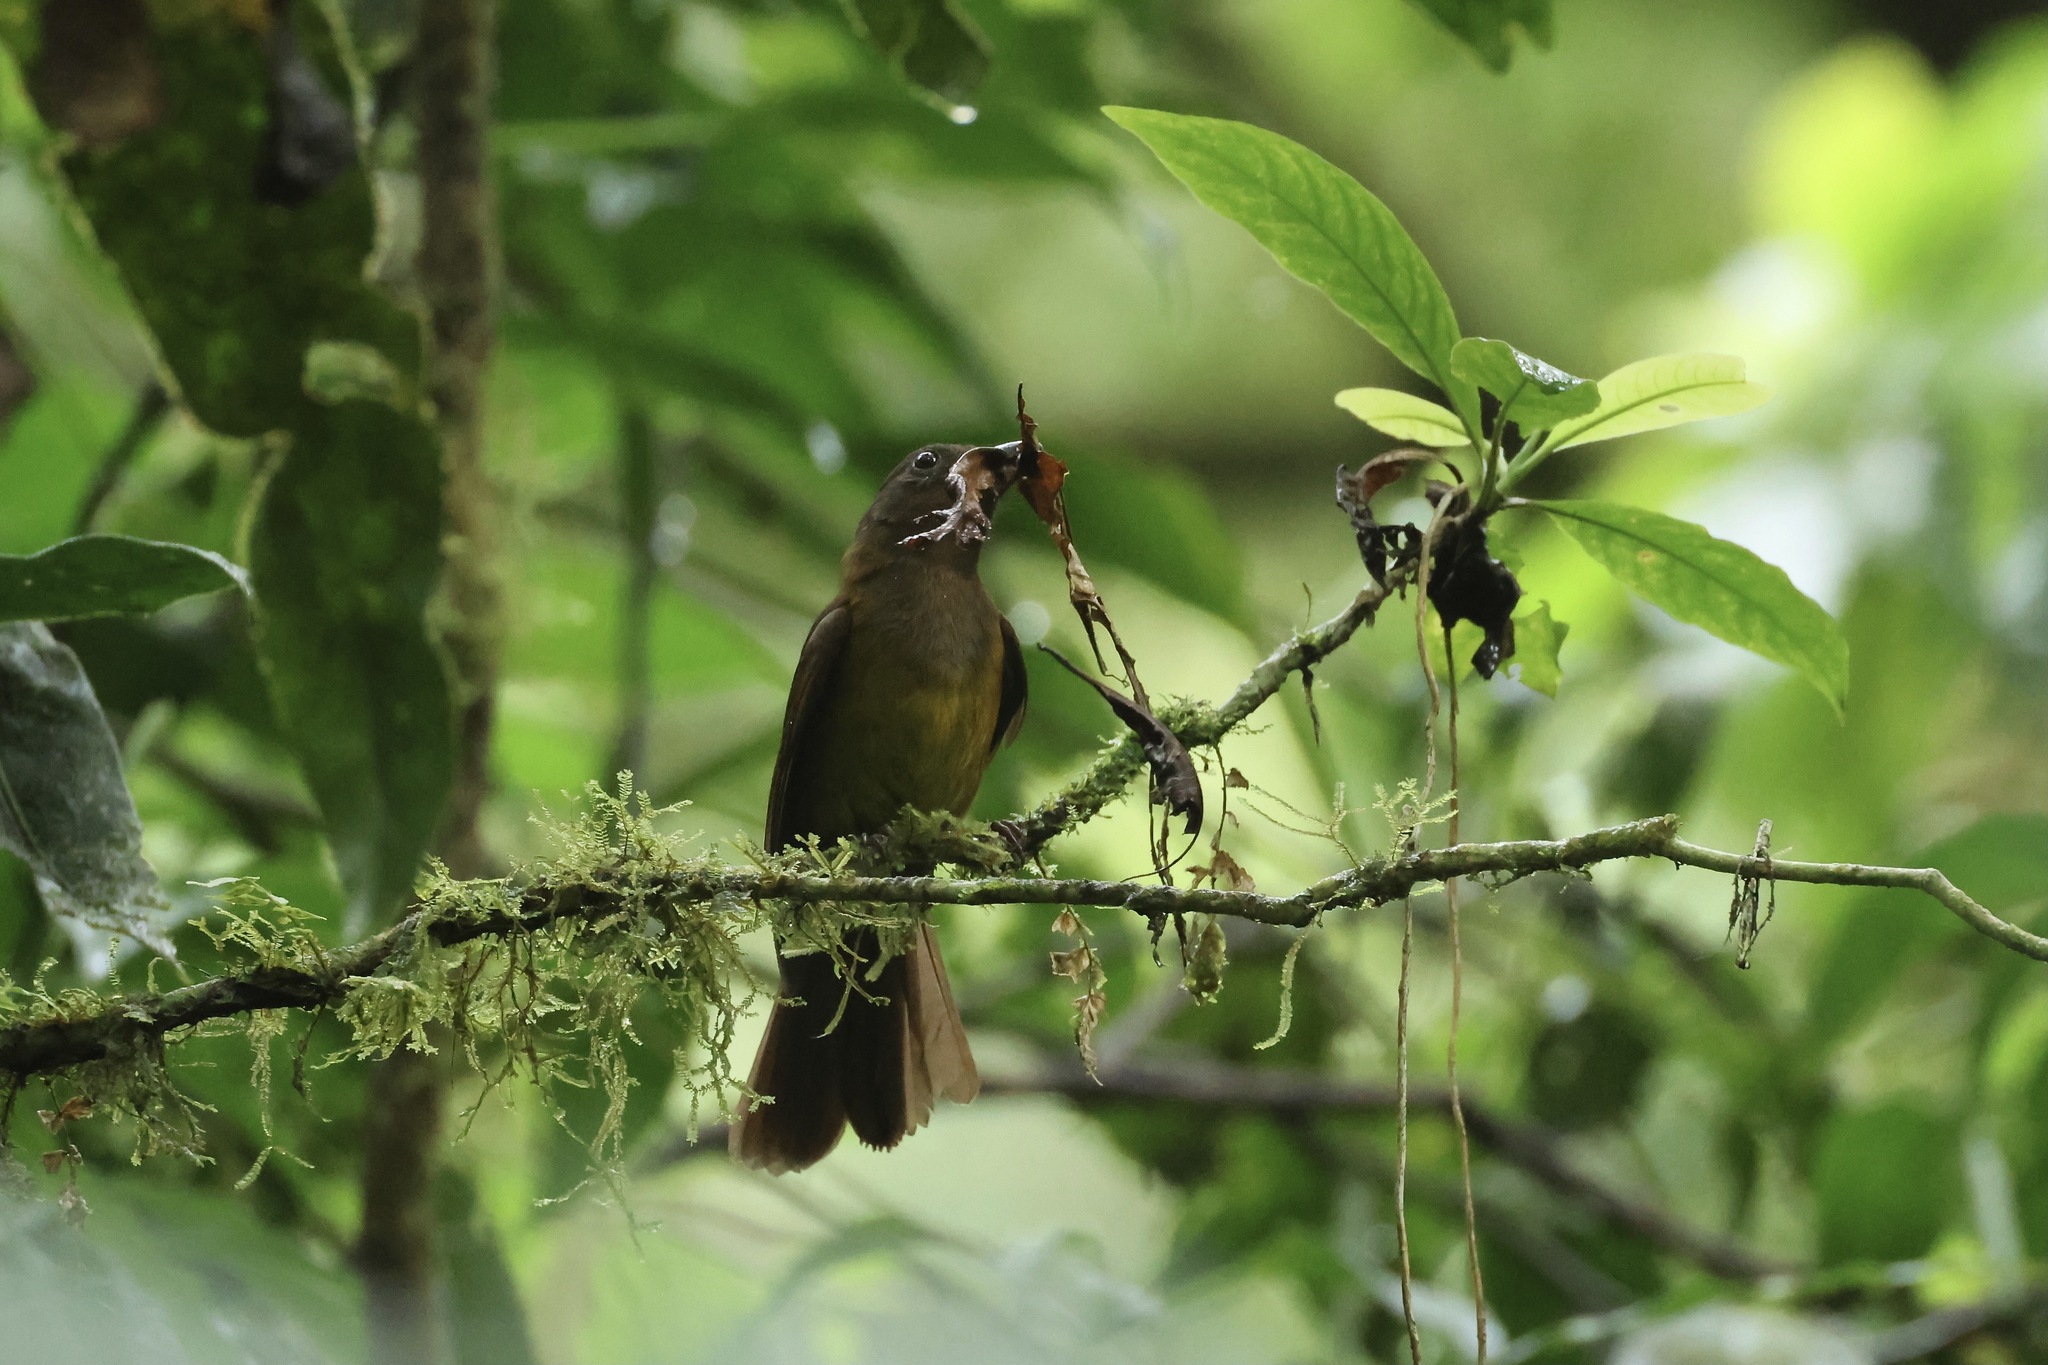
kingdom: Animalia
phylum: Chordata
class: Aves
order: Passeriformes
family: Cardinalidae
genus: Chlorothraupis
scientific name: Chlorothraupis carmioli
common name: Carmiol's tanager
